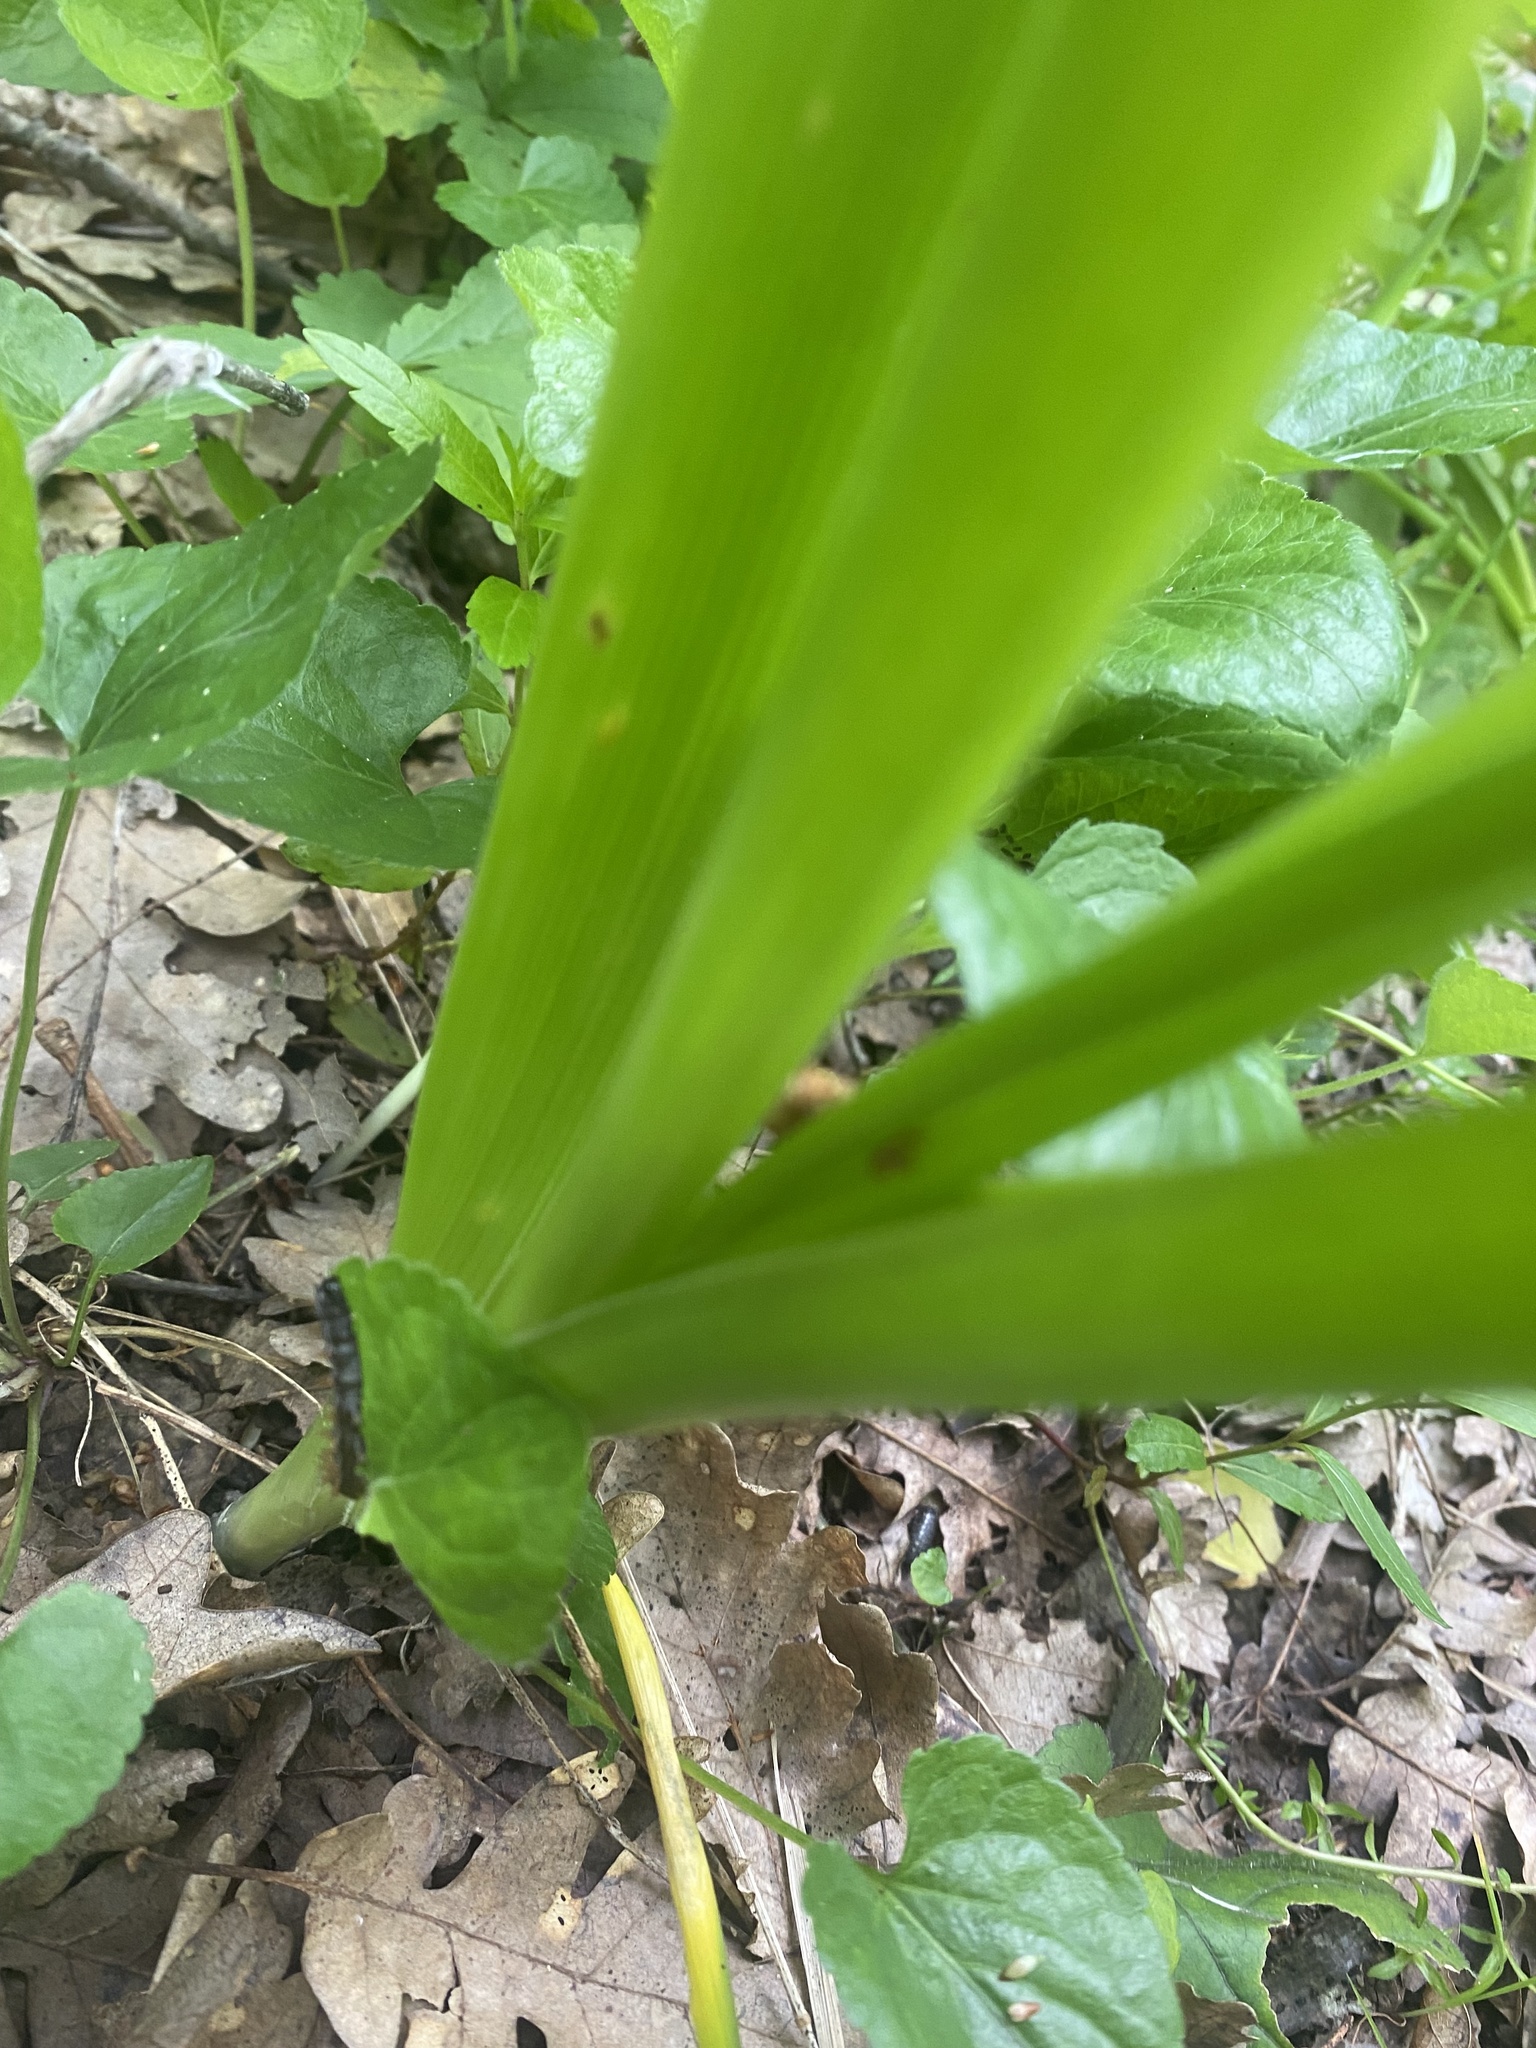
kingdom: Plantae
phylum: Tracheophyta
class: Liliopsida
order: Liliales
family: Colchicaceae
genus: Colchicum
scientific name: Colchicum umbrosum
